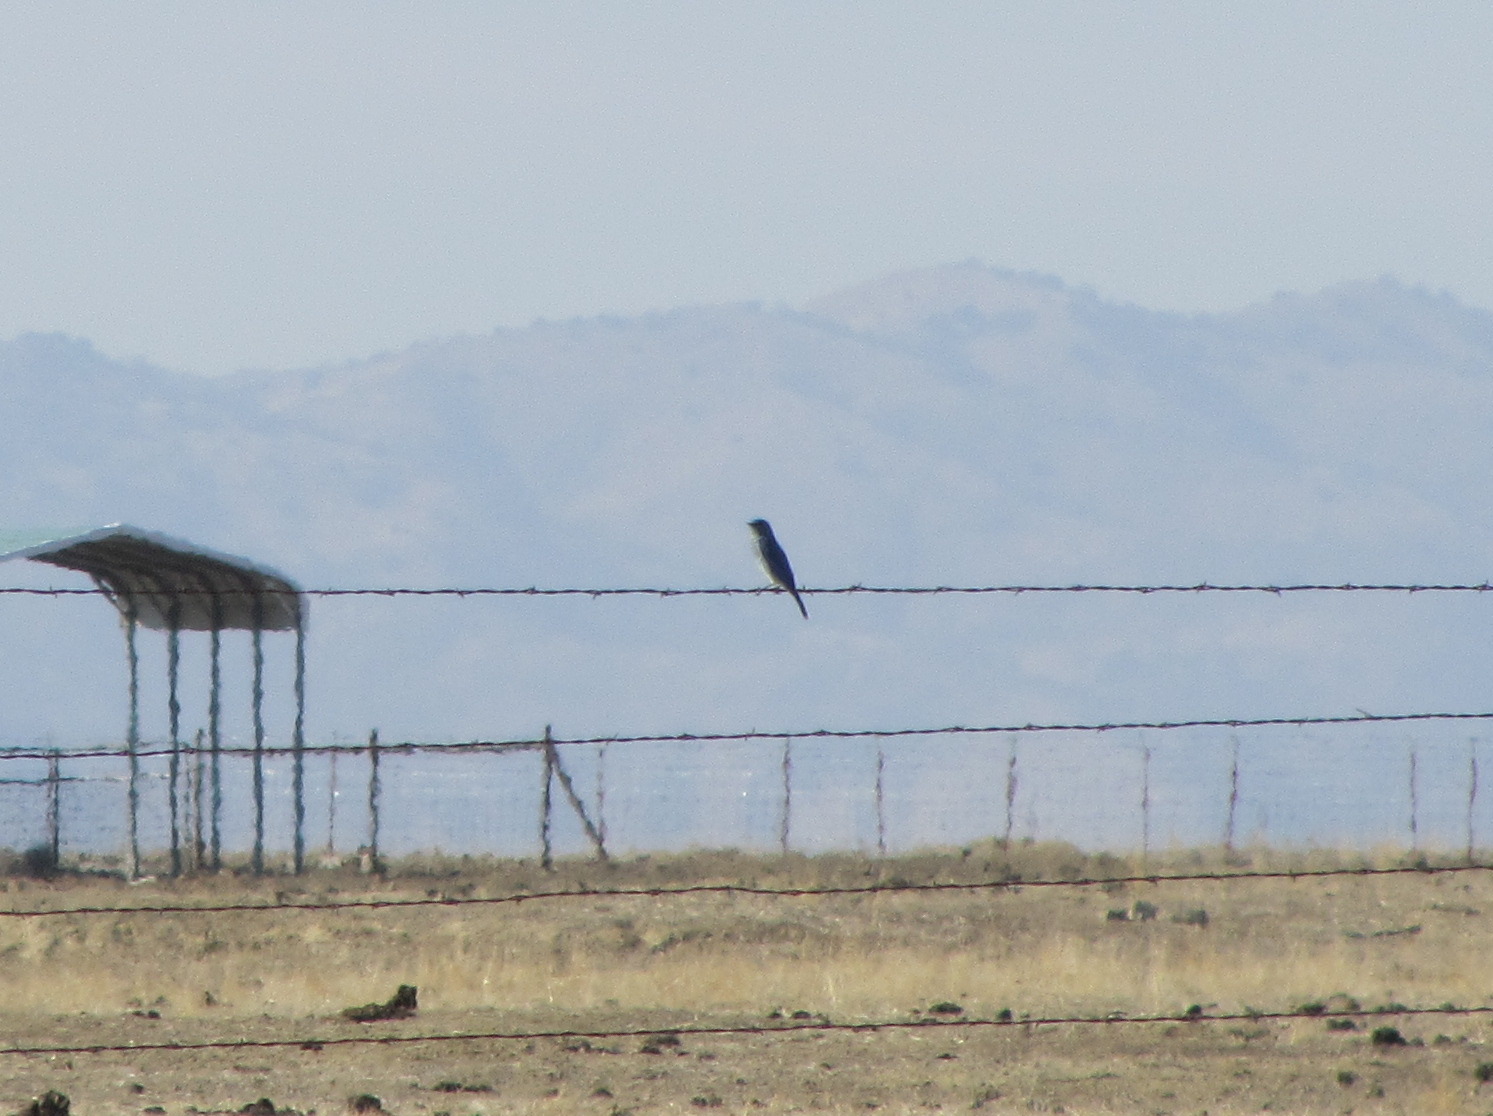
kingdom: Animalia
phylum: Chordata
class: Aves
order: Passeriformes
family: Turdidae
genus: Sialia
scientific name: Sialia currucoides
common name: Mountain bluebird
